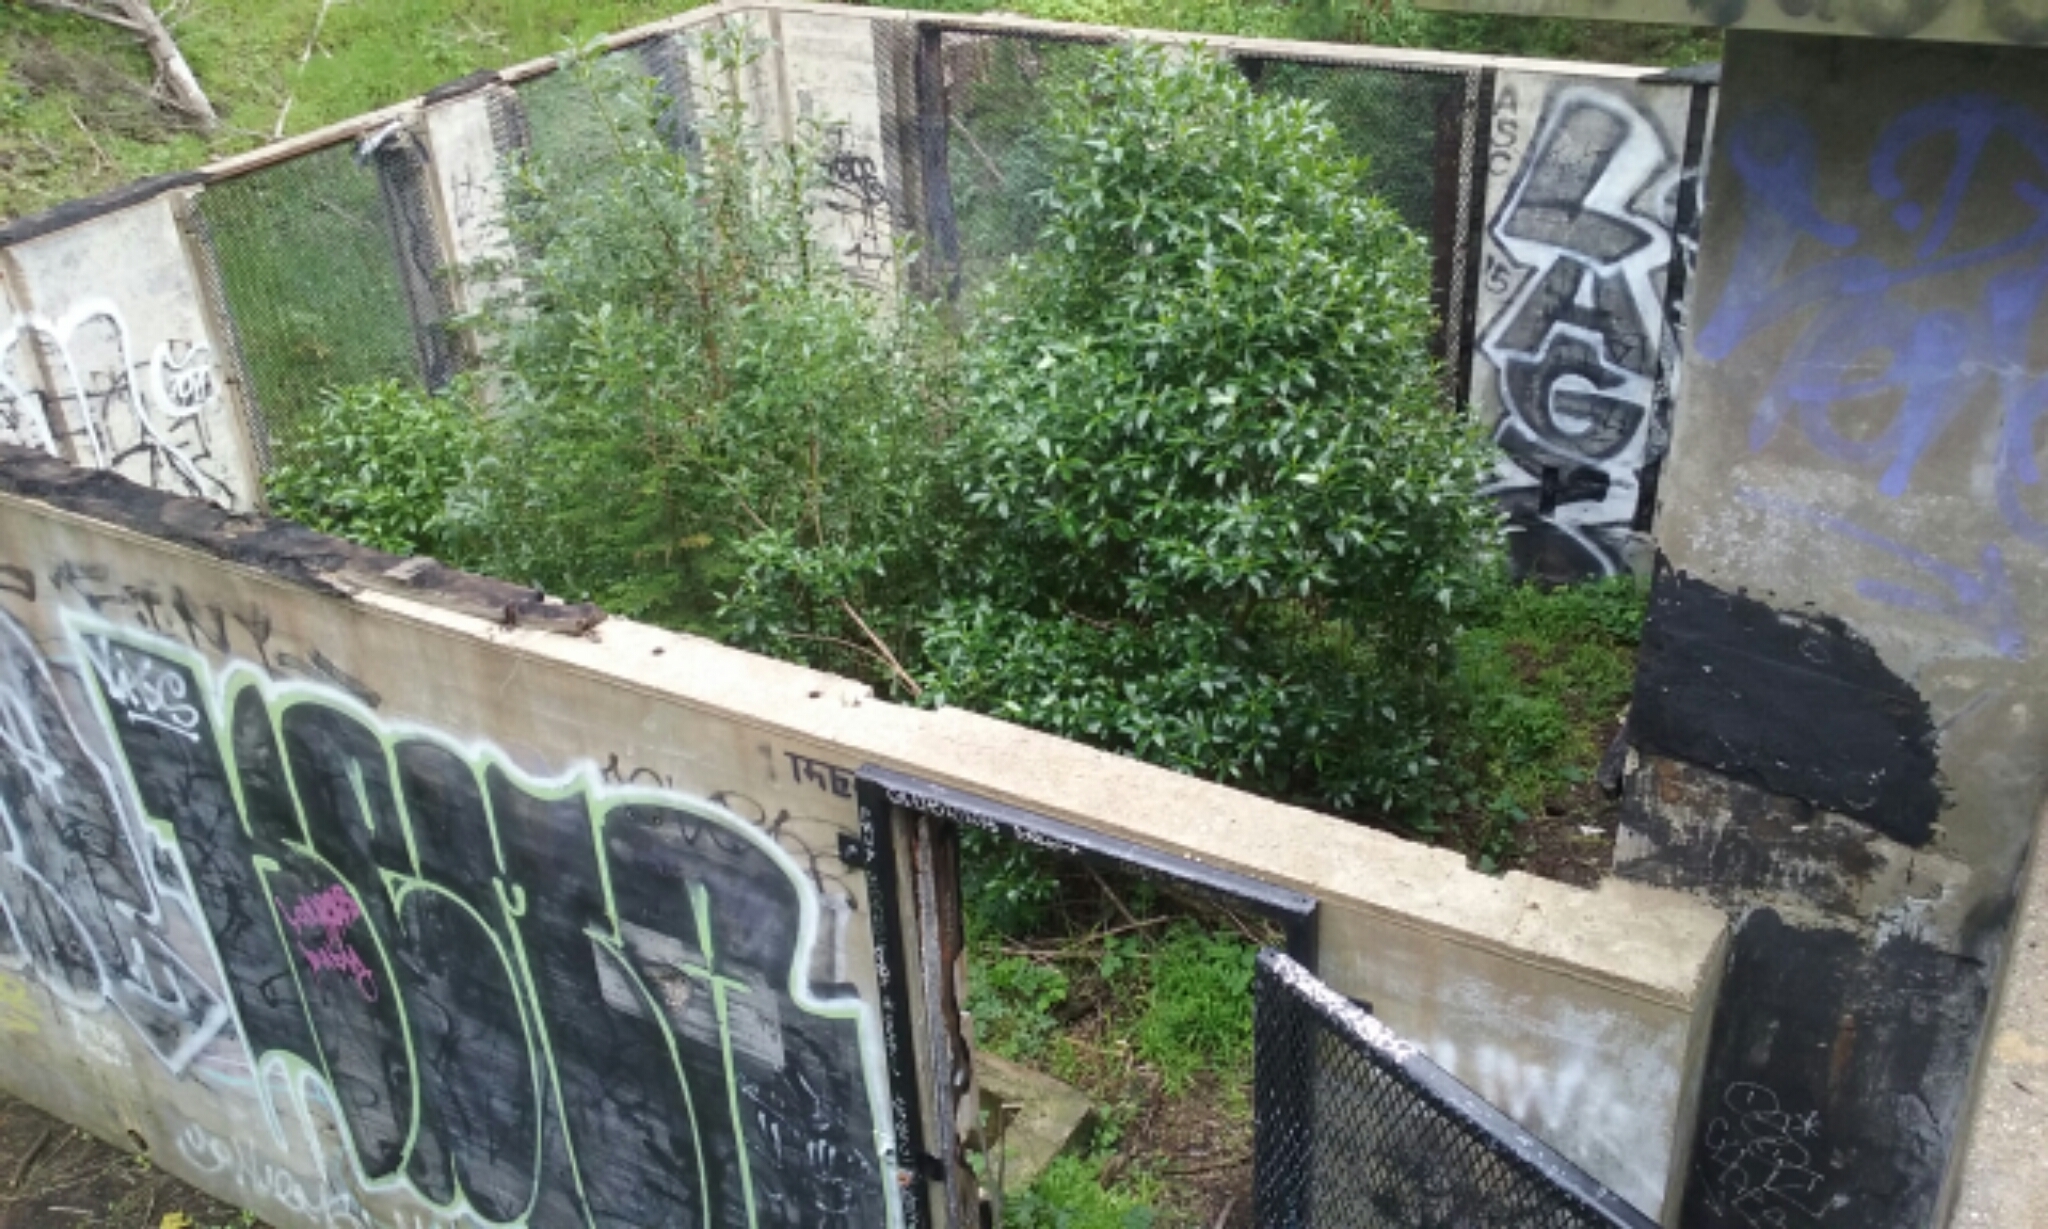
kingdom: Plantae
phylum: Tracheophyta
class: Magnoliopsida
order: Lamiales
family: Scrophulariaceae
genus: Myoporum
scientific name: Myoporum laetum
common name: Ngaio tree
